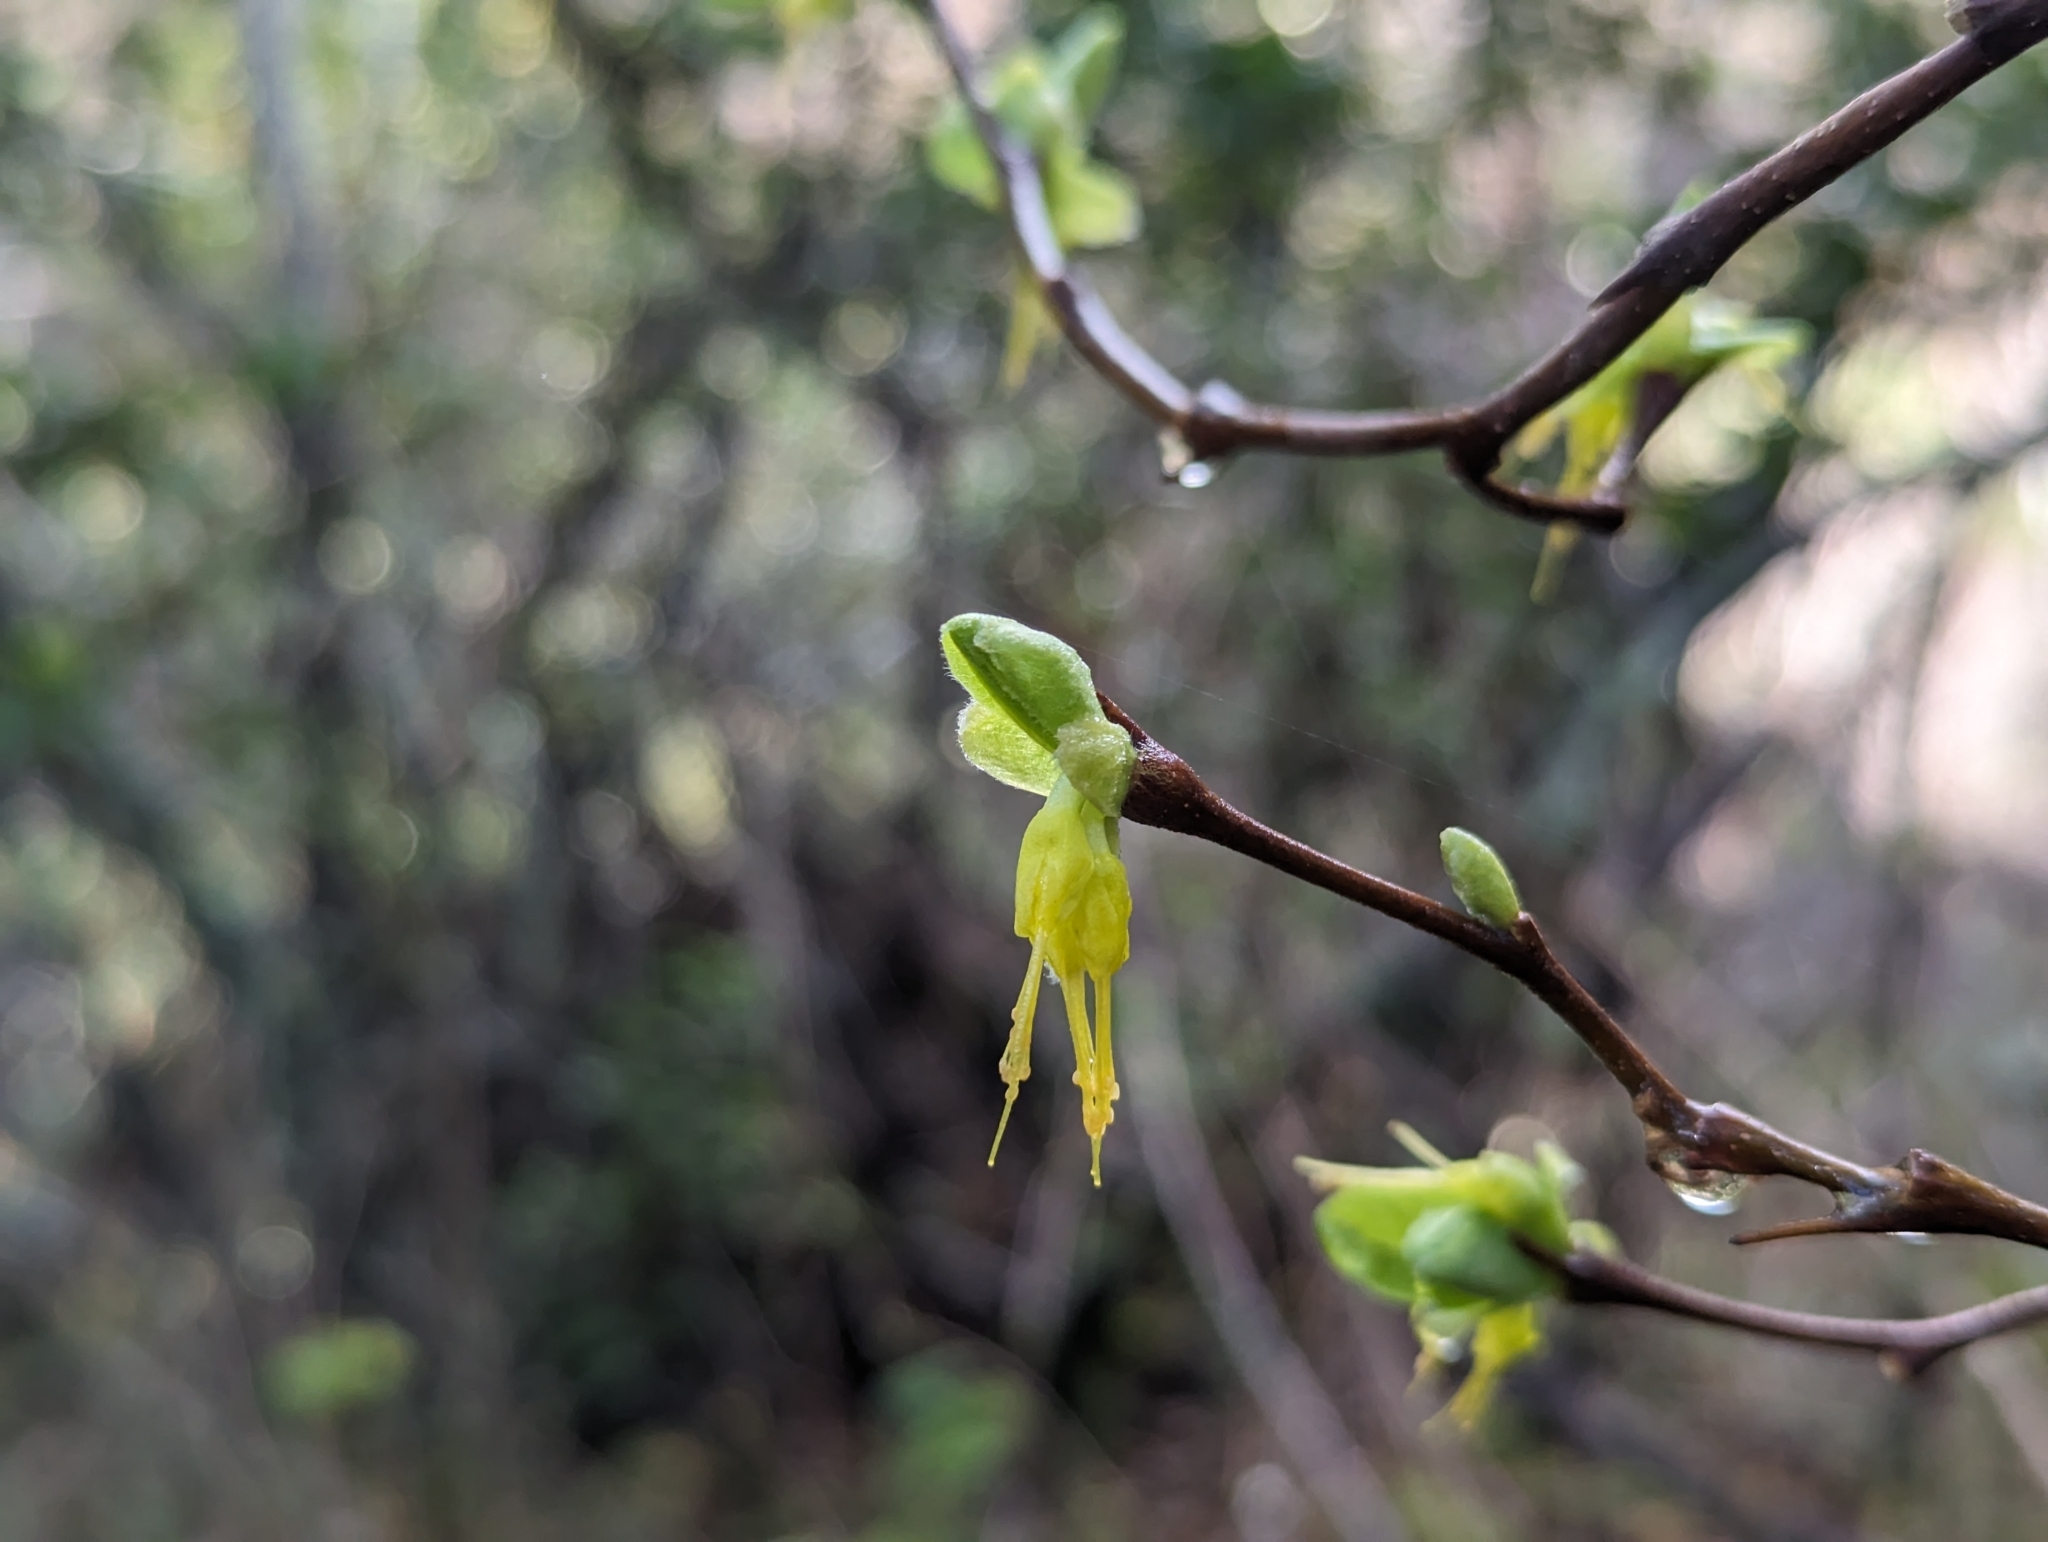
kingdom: Plantae
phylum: Tracheophyta
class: Magnoliopsida
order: Malvales
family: Thymelaeaceae
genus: Dirca
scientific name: Dirca occidentalis
